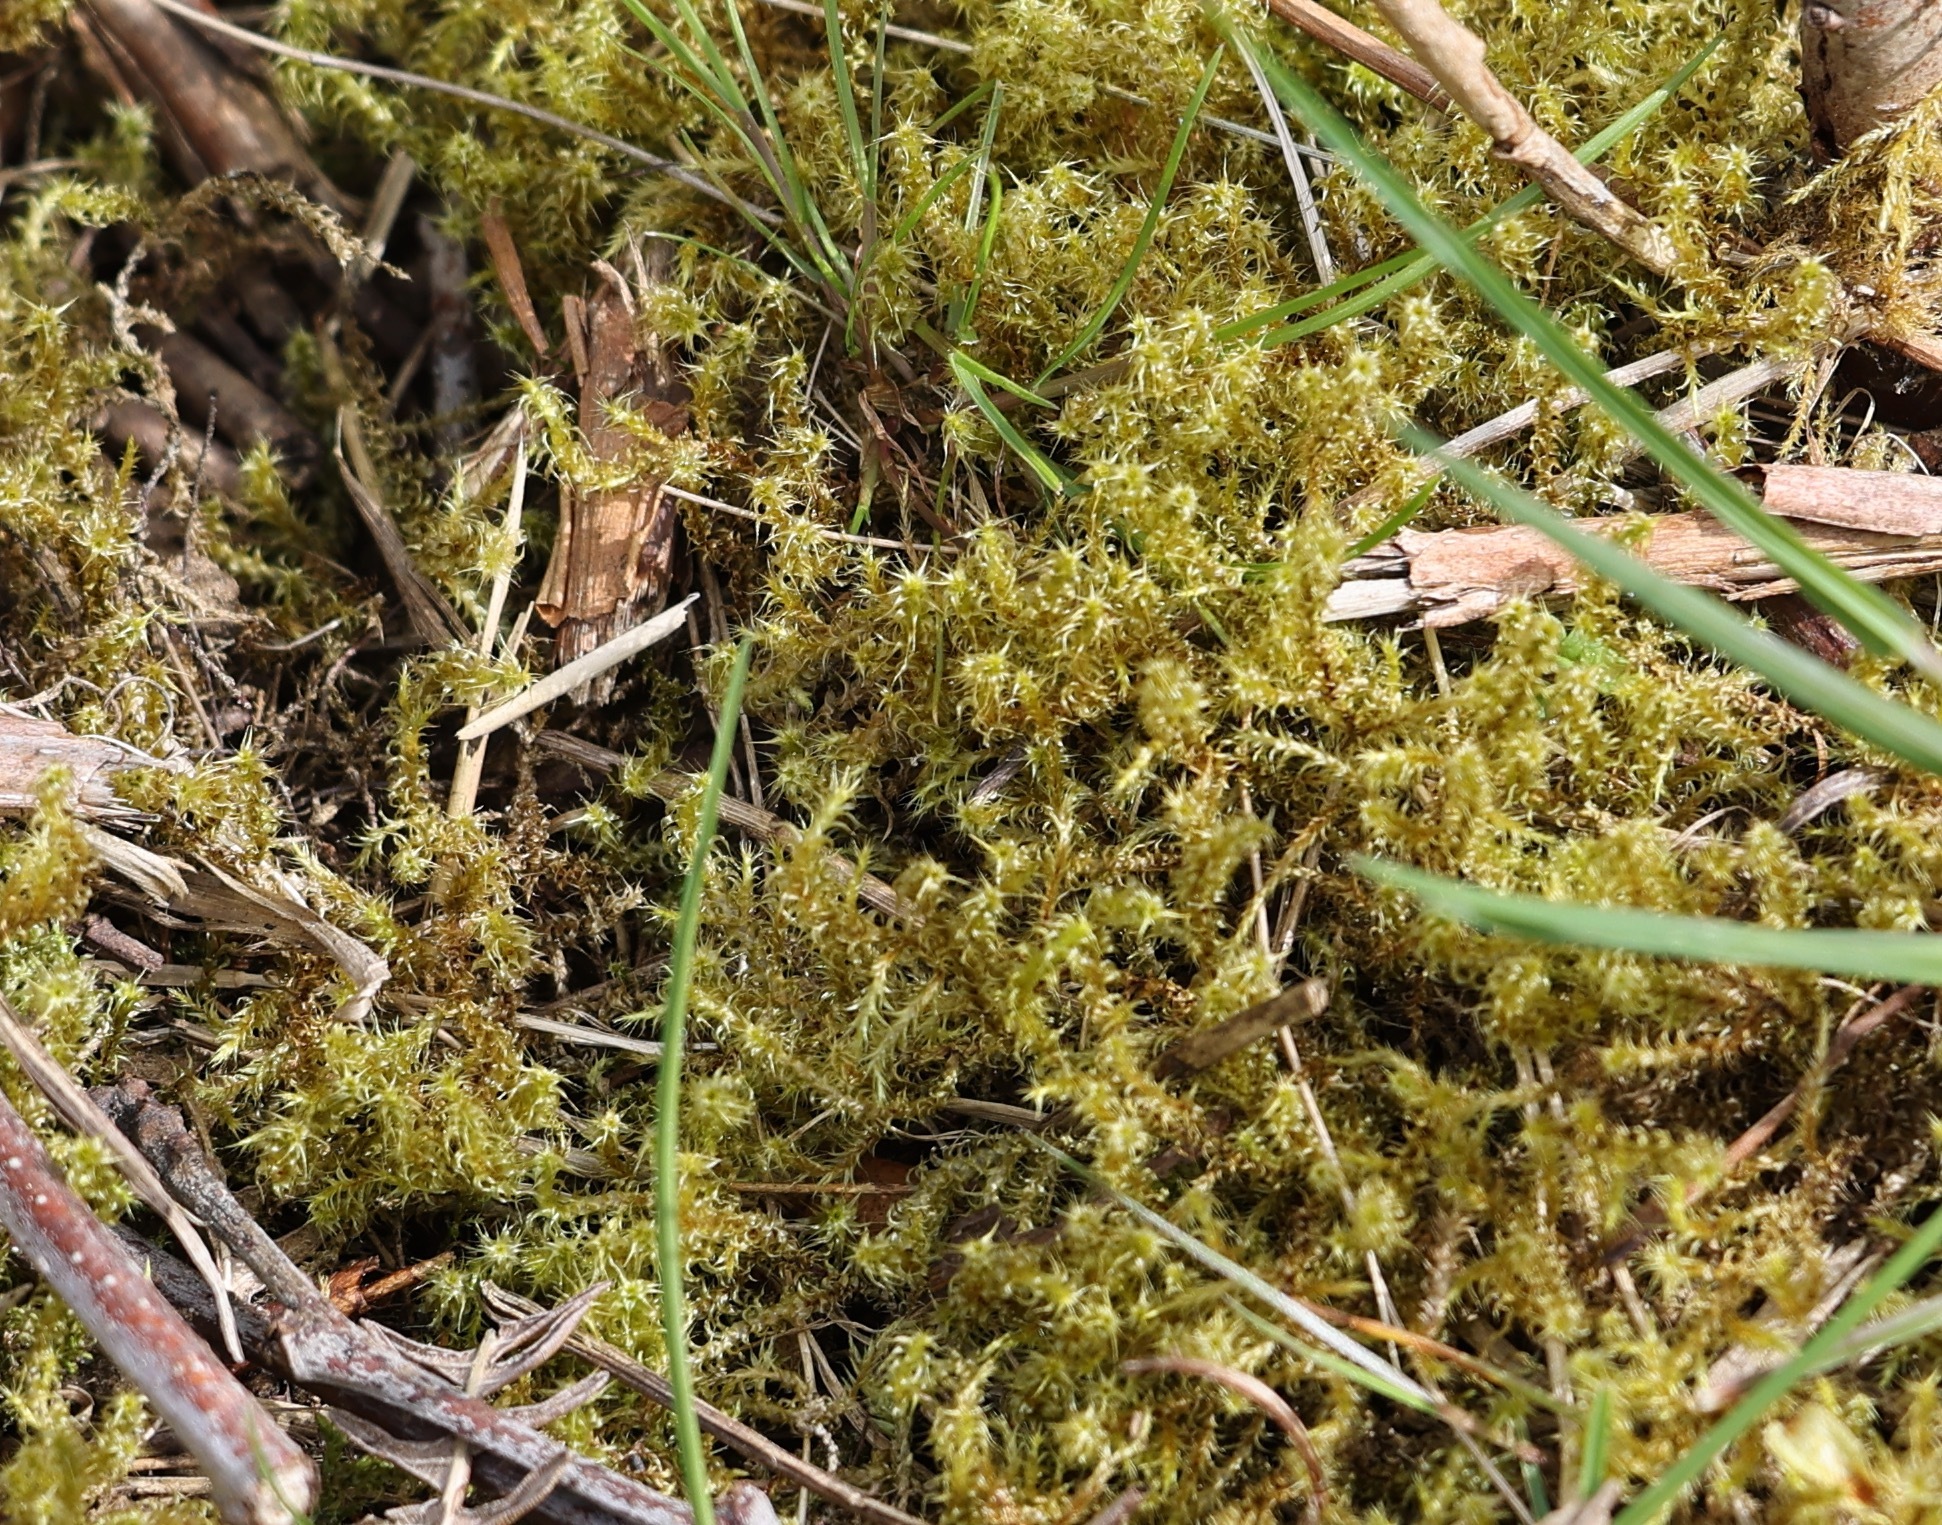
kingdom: Plantae
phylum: Bryophyta
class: Bryopsida
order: Hypnales
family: Hylocomiaceae
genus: Rhytidiadelphus
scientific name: Rhytidiadelphus squarrosus
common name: Springy turf-moss
